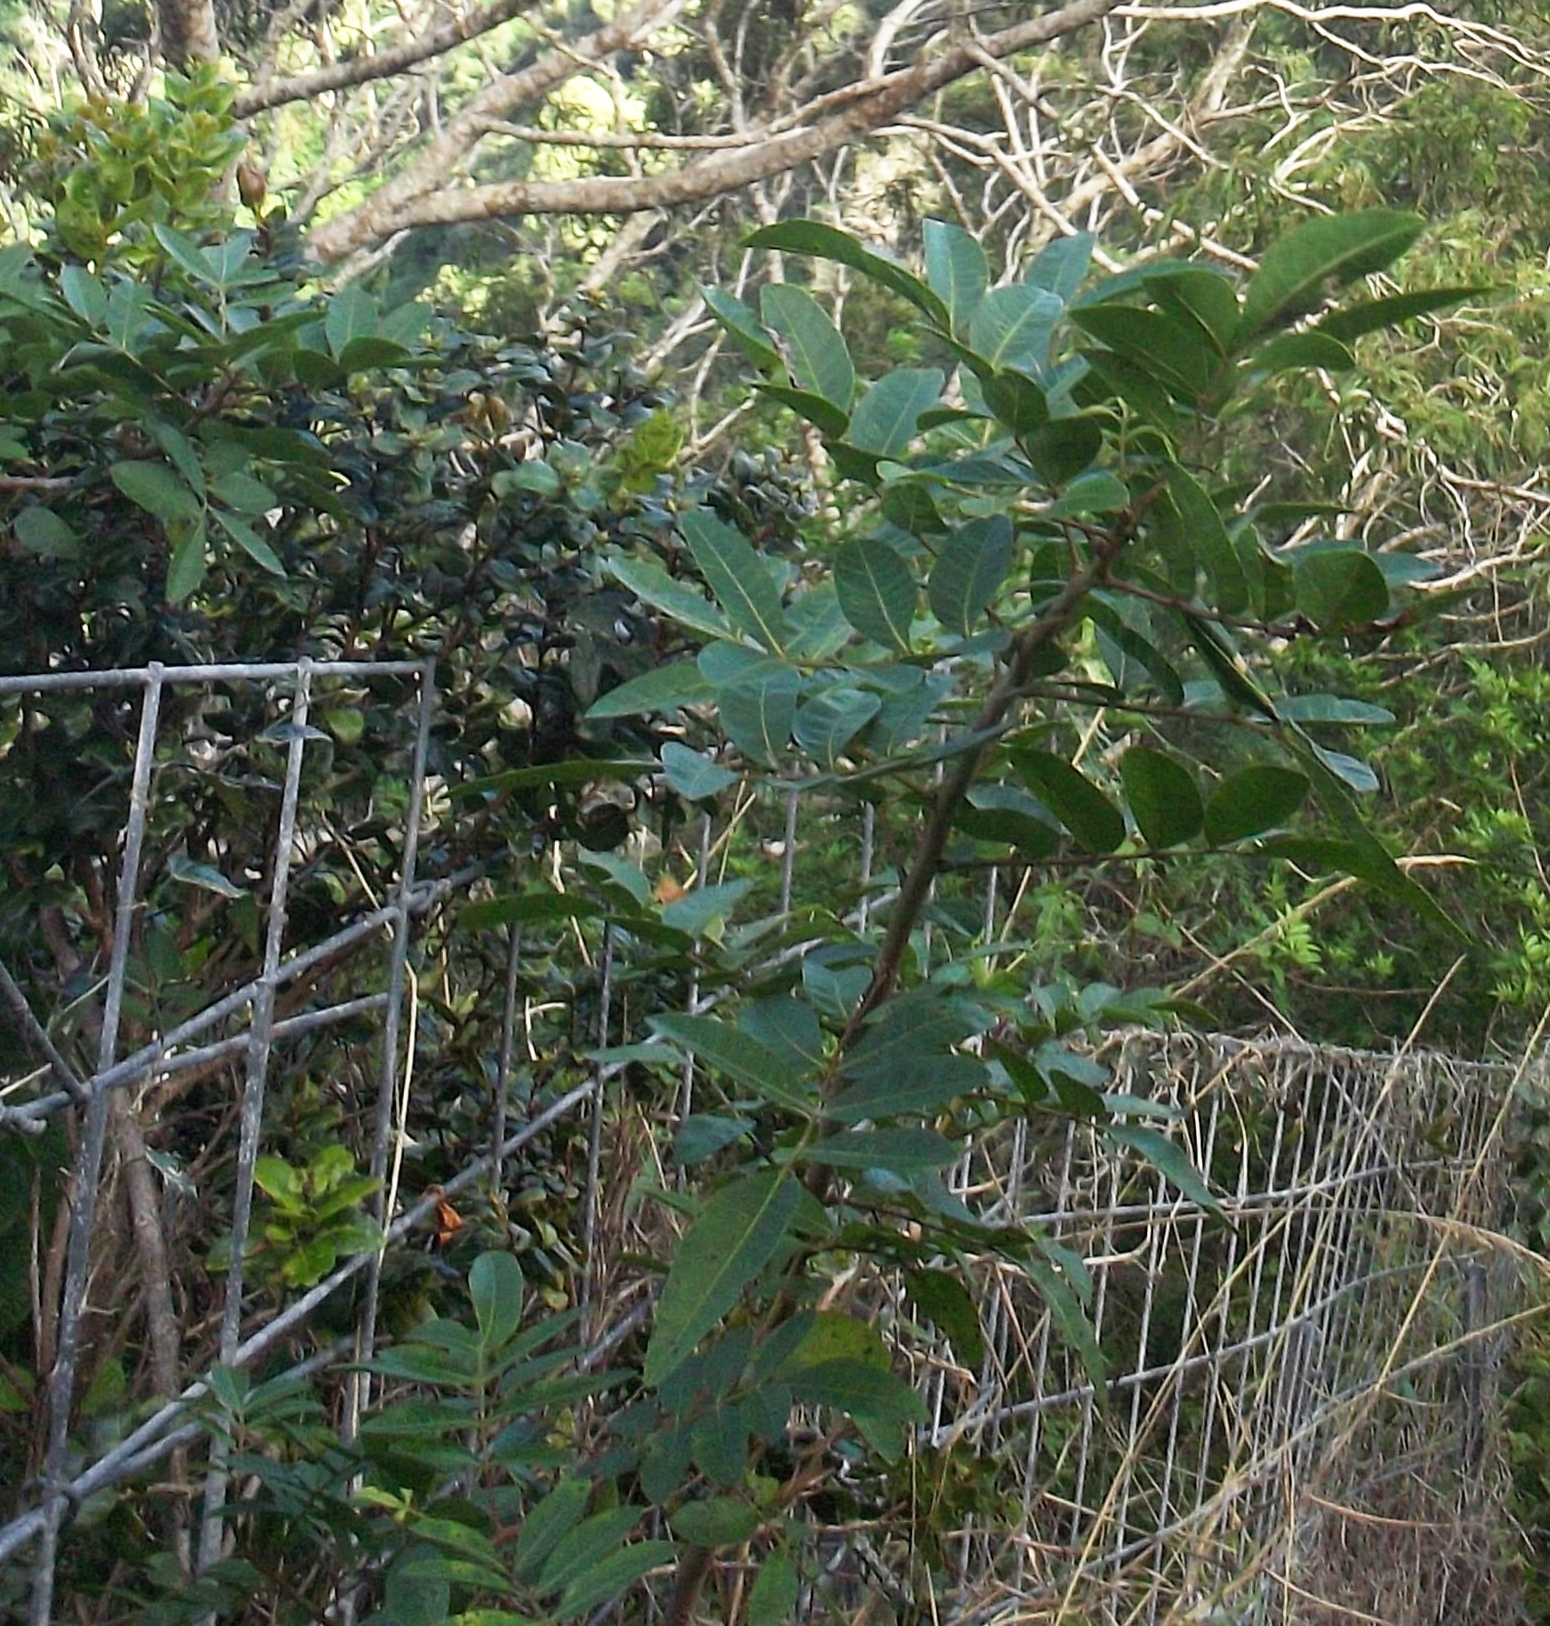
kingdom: Plantae
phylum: Tracheophyta
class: Magnoliopsida
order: Sapindales
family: Anacardiaceae
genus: Schinus
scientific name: Schinus terebinthifolia
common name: Brazilian peppertree
